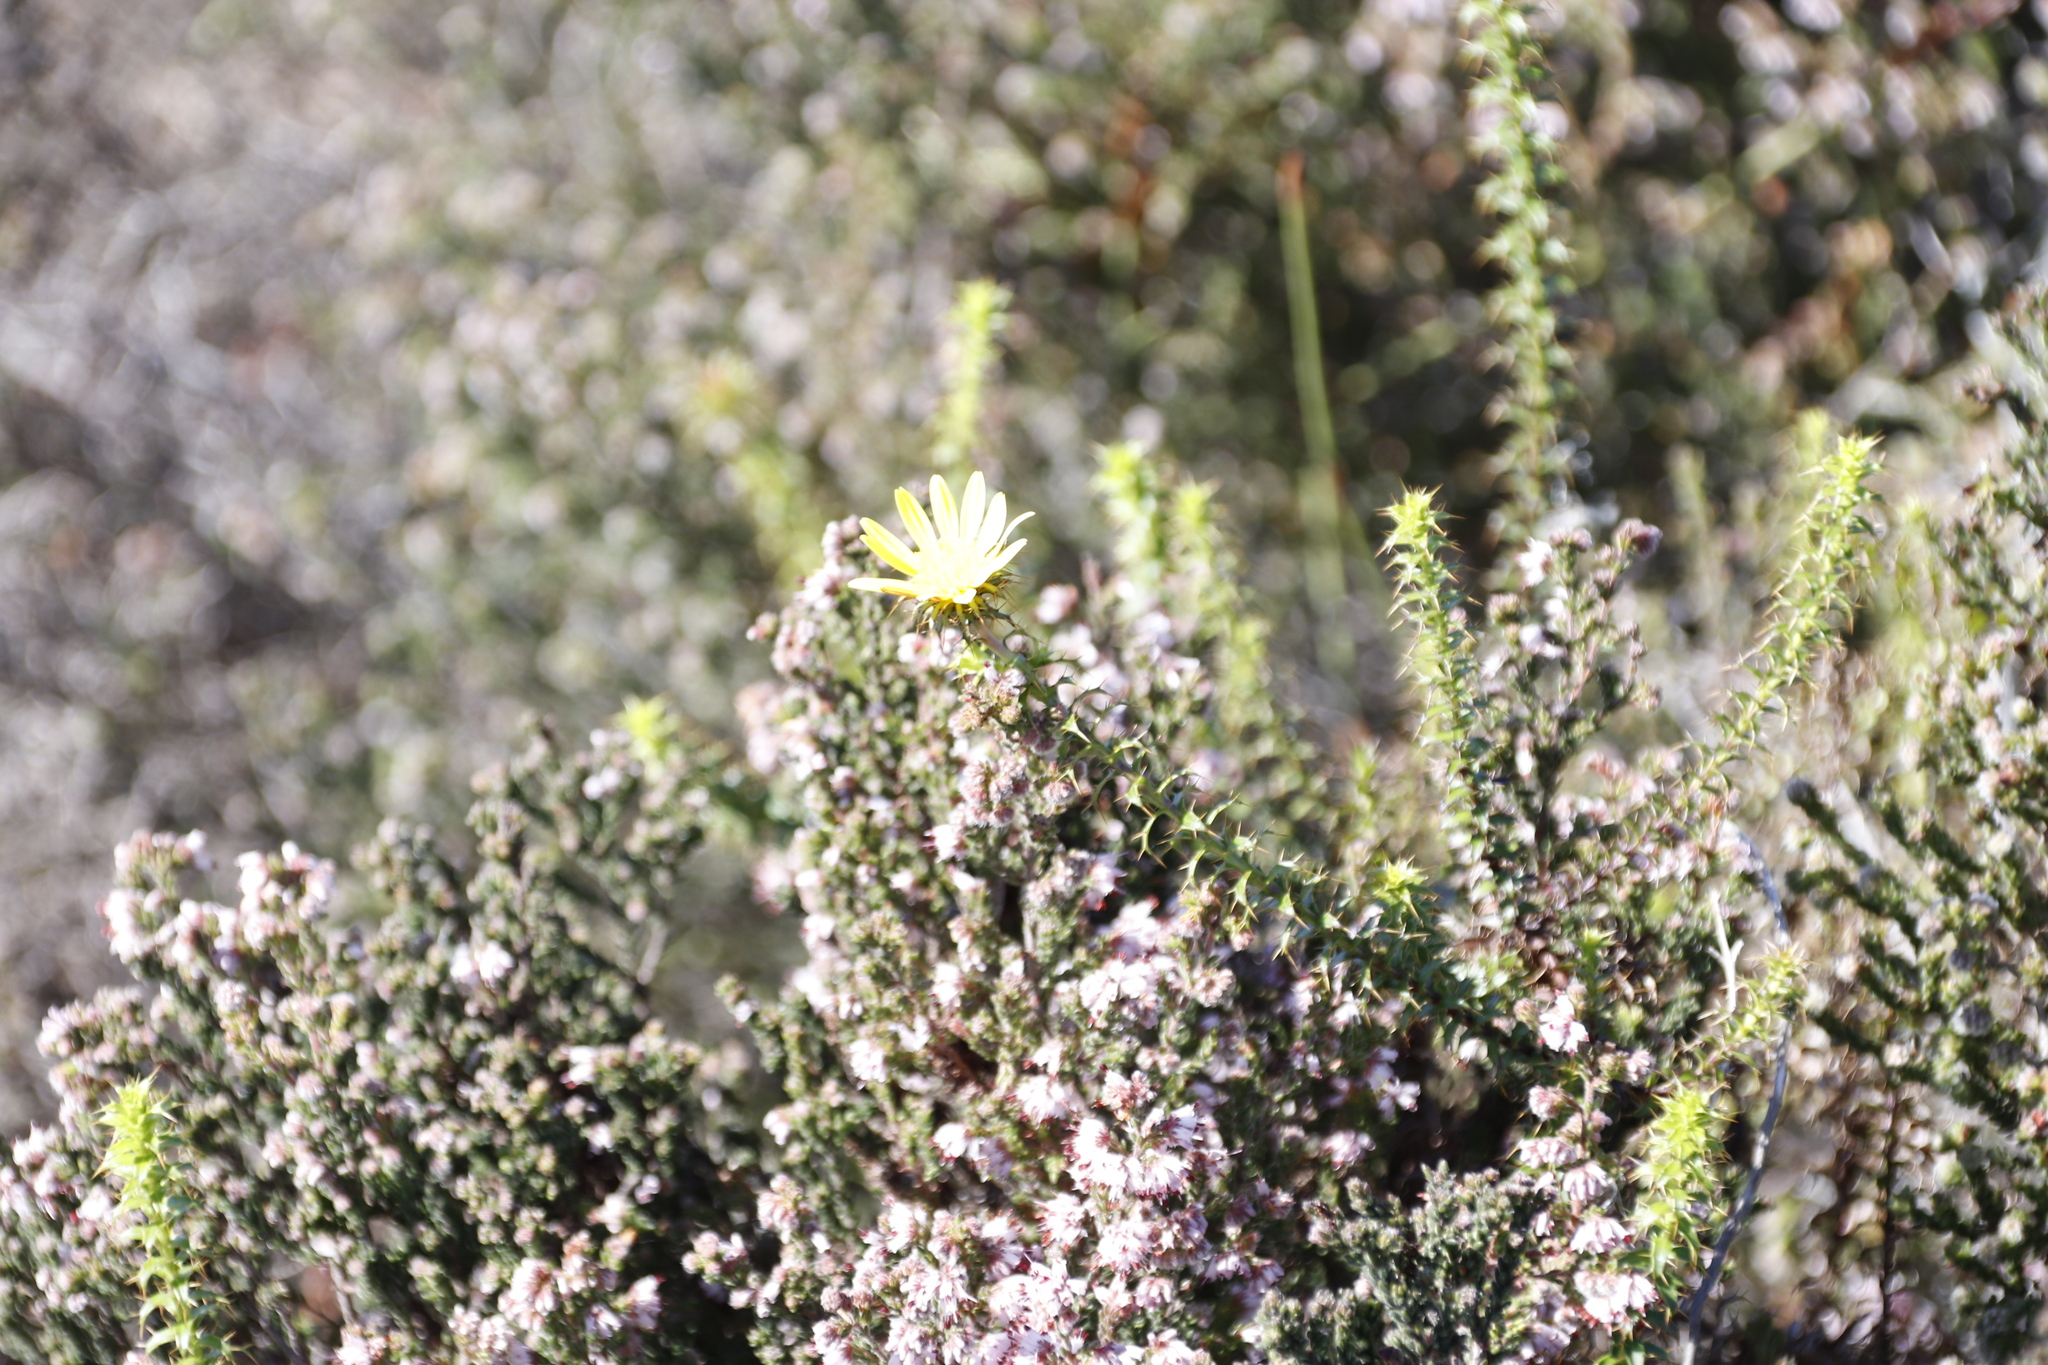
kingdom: Plantae
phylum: Tracheophyta
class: Magnoliopsida
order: Asterales
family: Asteraceae
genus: Cullumia
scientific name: Cullumia setosa
